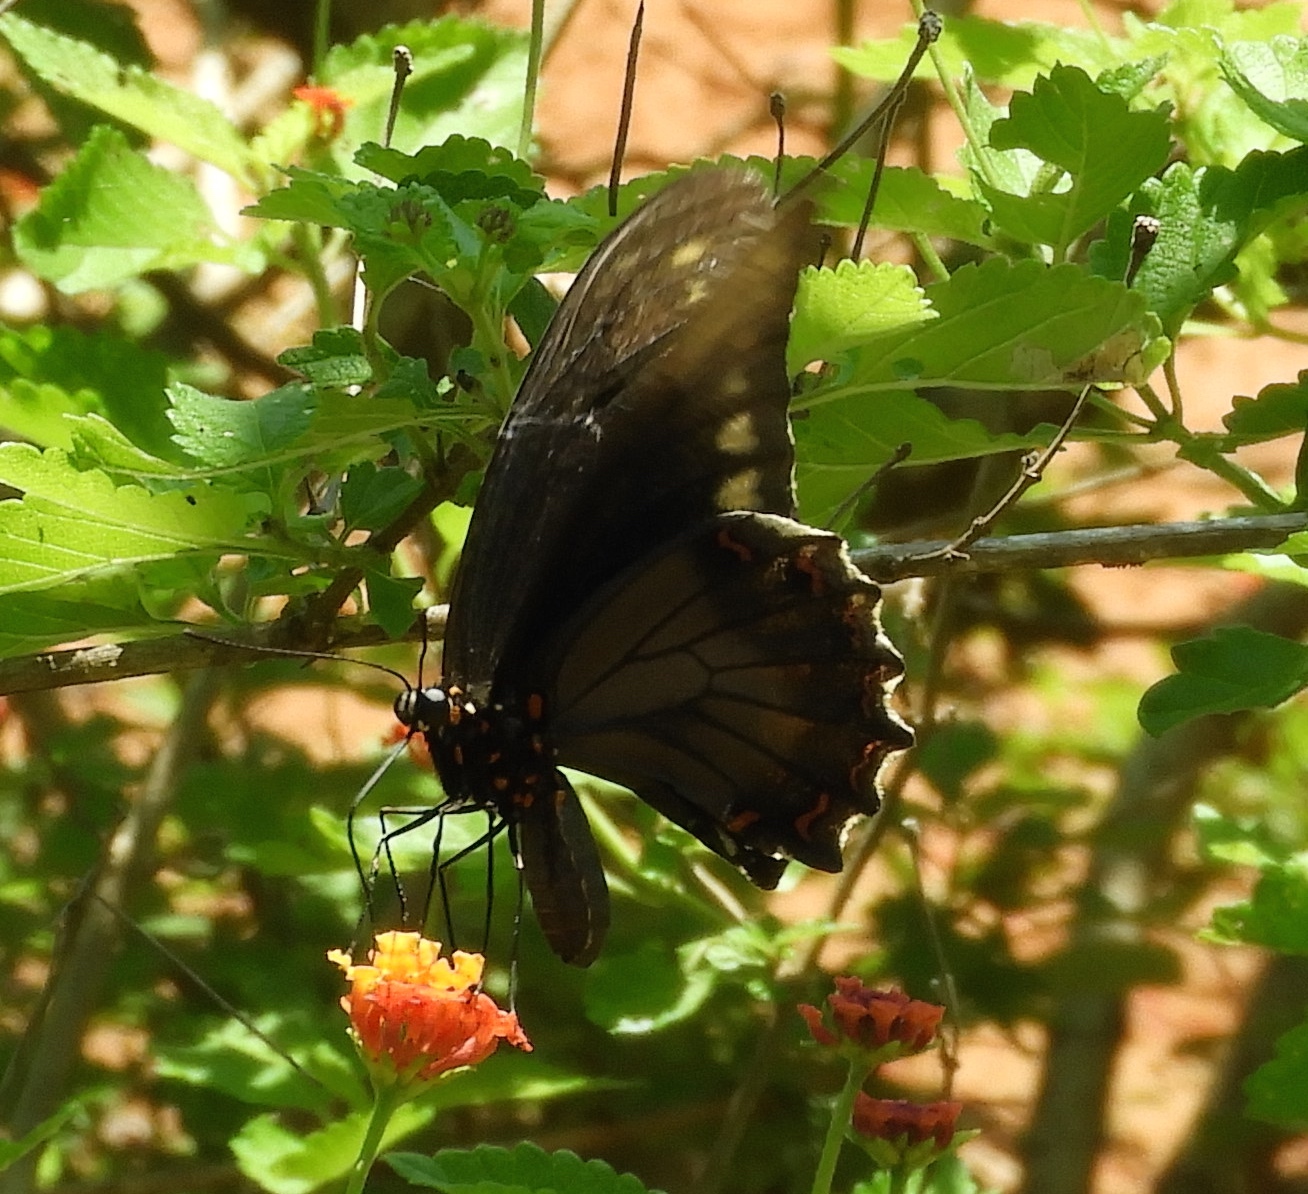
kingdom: Animalia
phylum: Arthropoda
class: Insecta
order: Lepidoptera
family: Papilionidae
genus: Battus
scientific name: Battus polydamas
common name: Polydamas swallowtail
